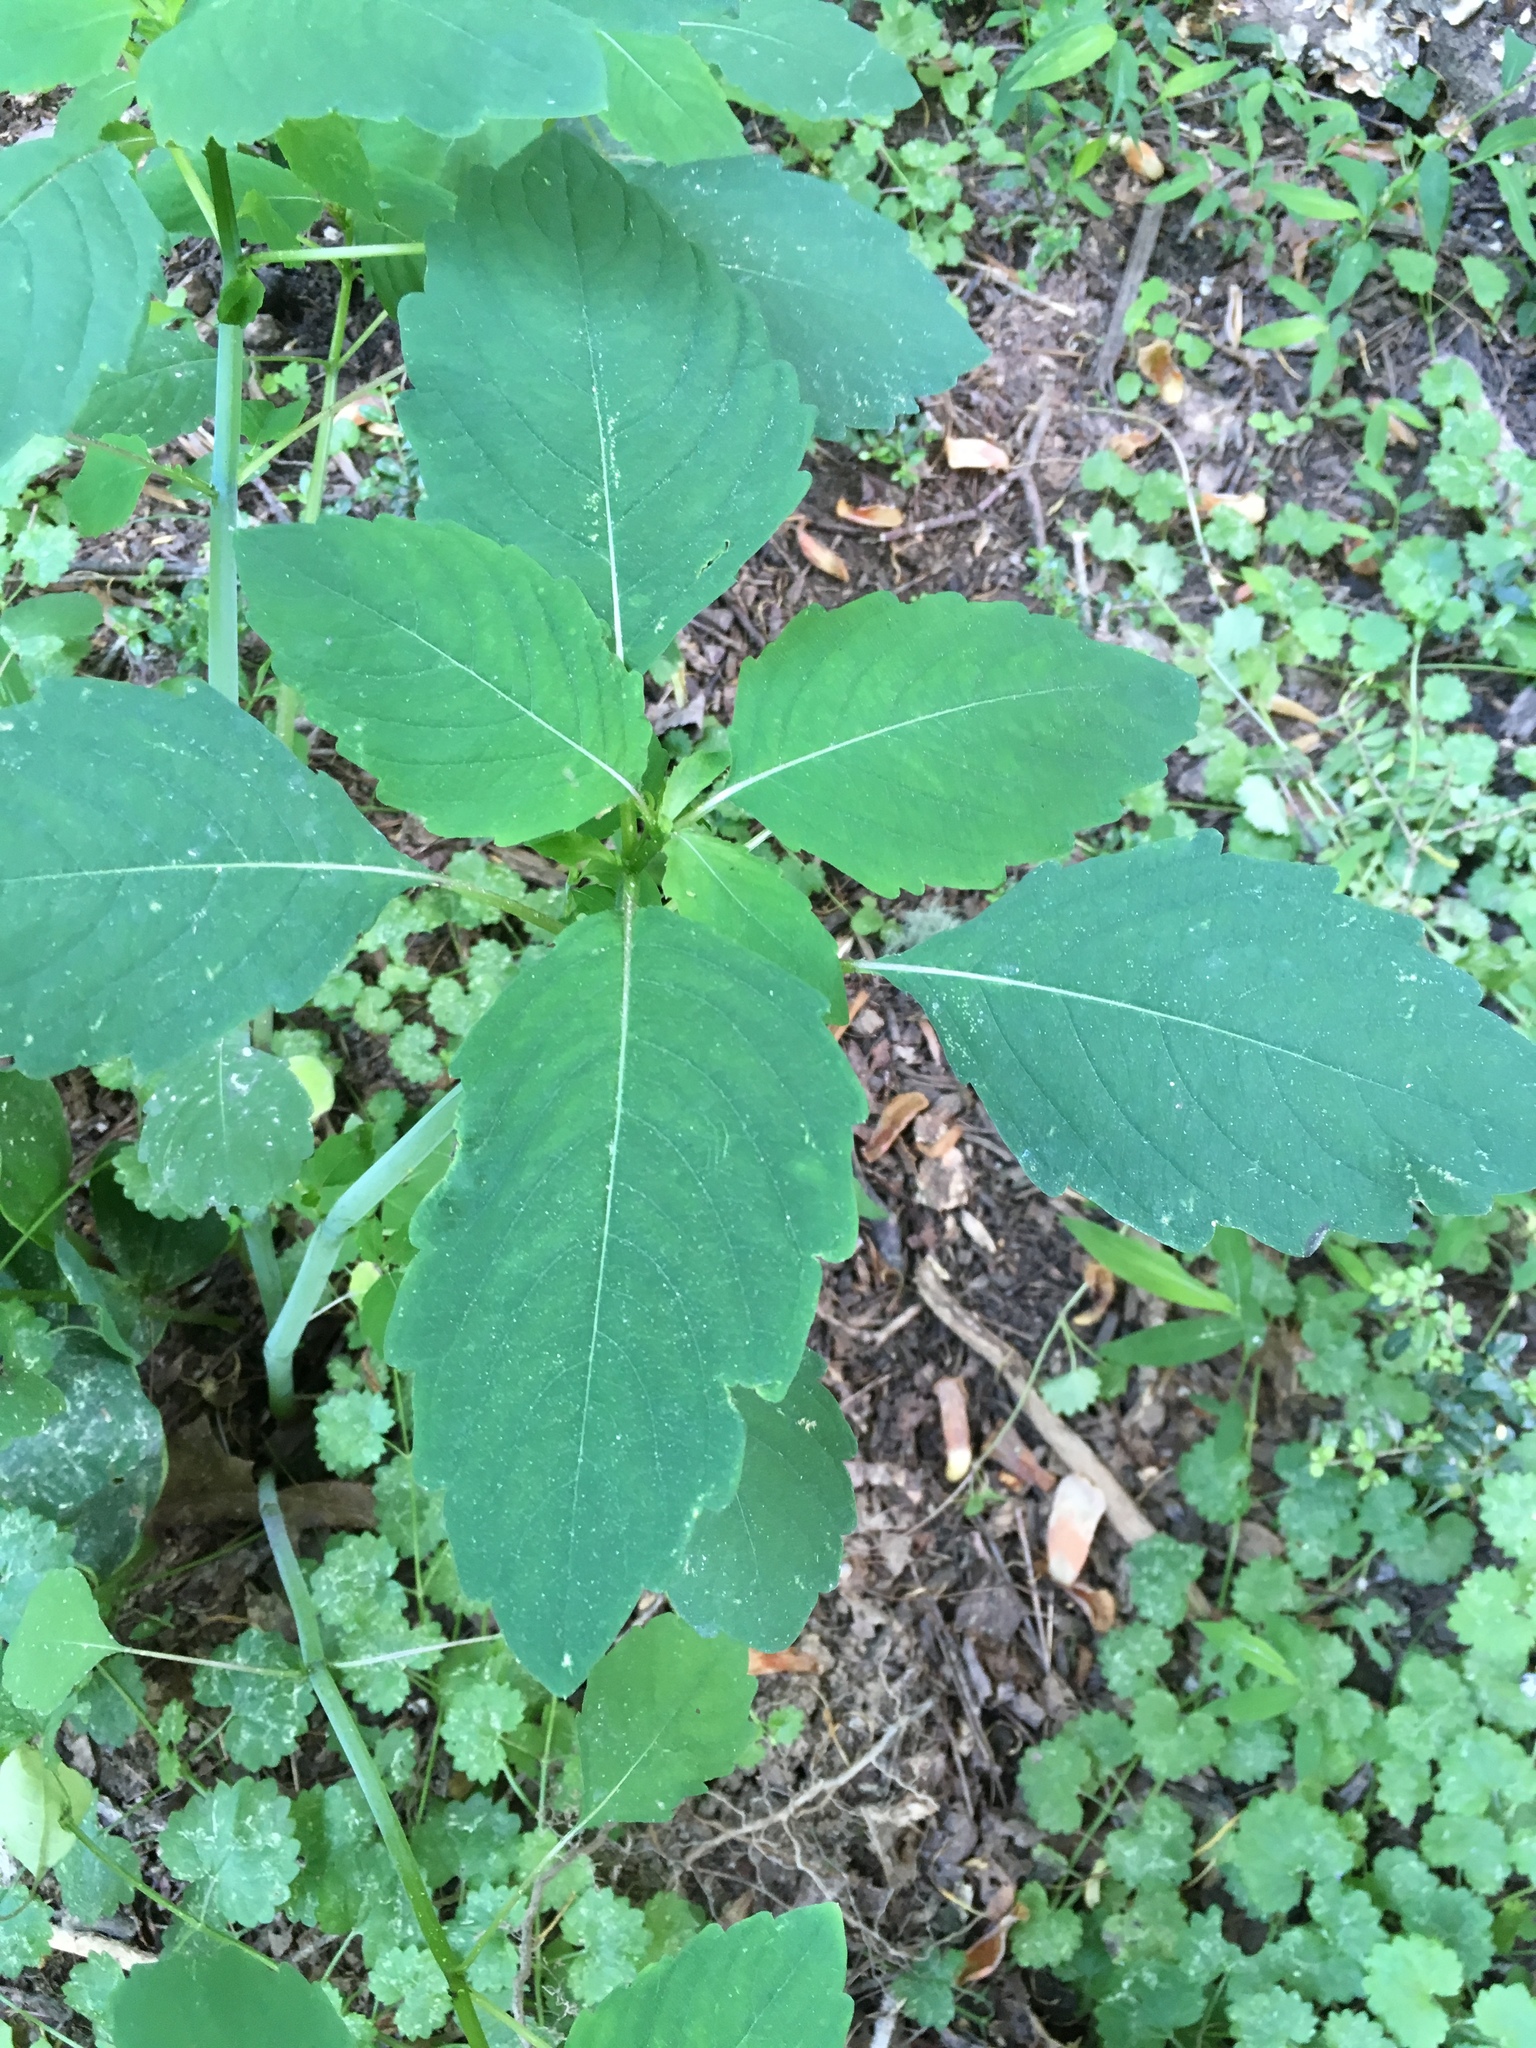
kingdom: Plantae
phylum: Tracheophyta
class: Magnoliopsida
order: Ericales
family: Balsaminaceae
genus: Impatiens
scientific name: Impatiens capensis
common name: Orange balsam
